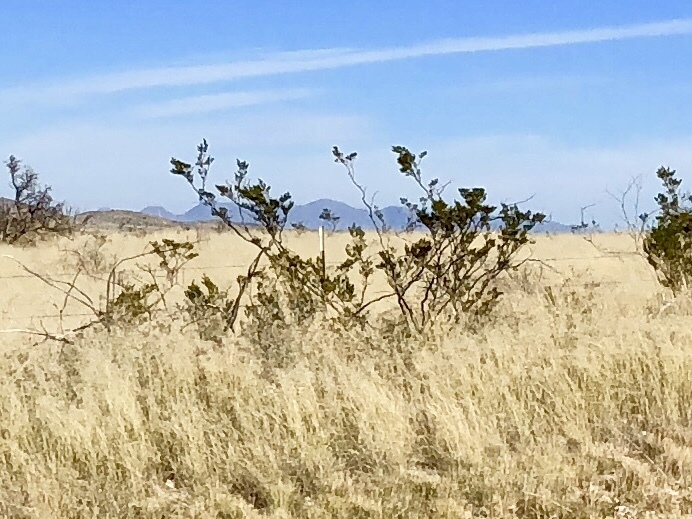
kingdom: Plantae
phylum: Tracheophyta
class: Magnoliopsida
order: Zygophyllales
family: Zygophyllaceae
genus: Larrea
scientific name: Larrea tridentata
